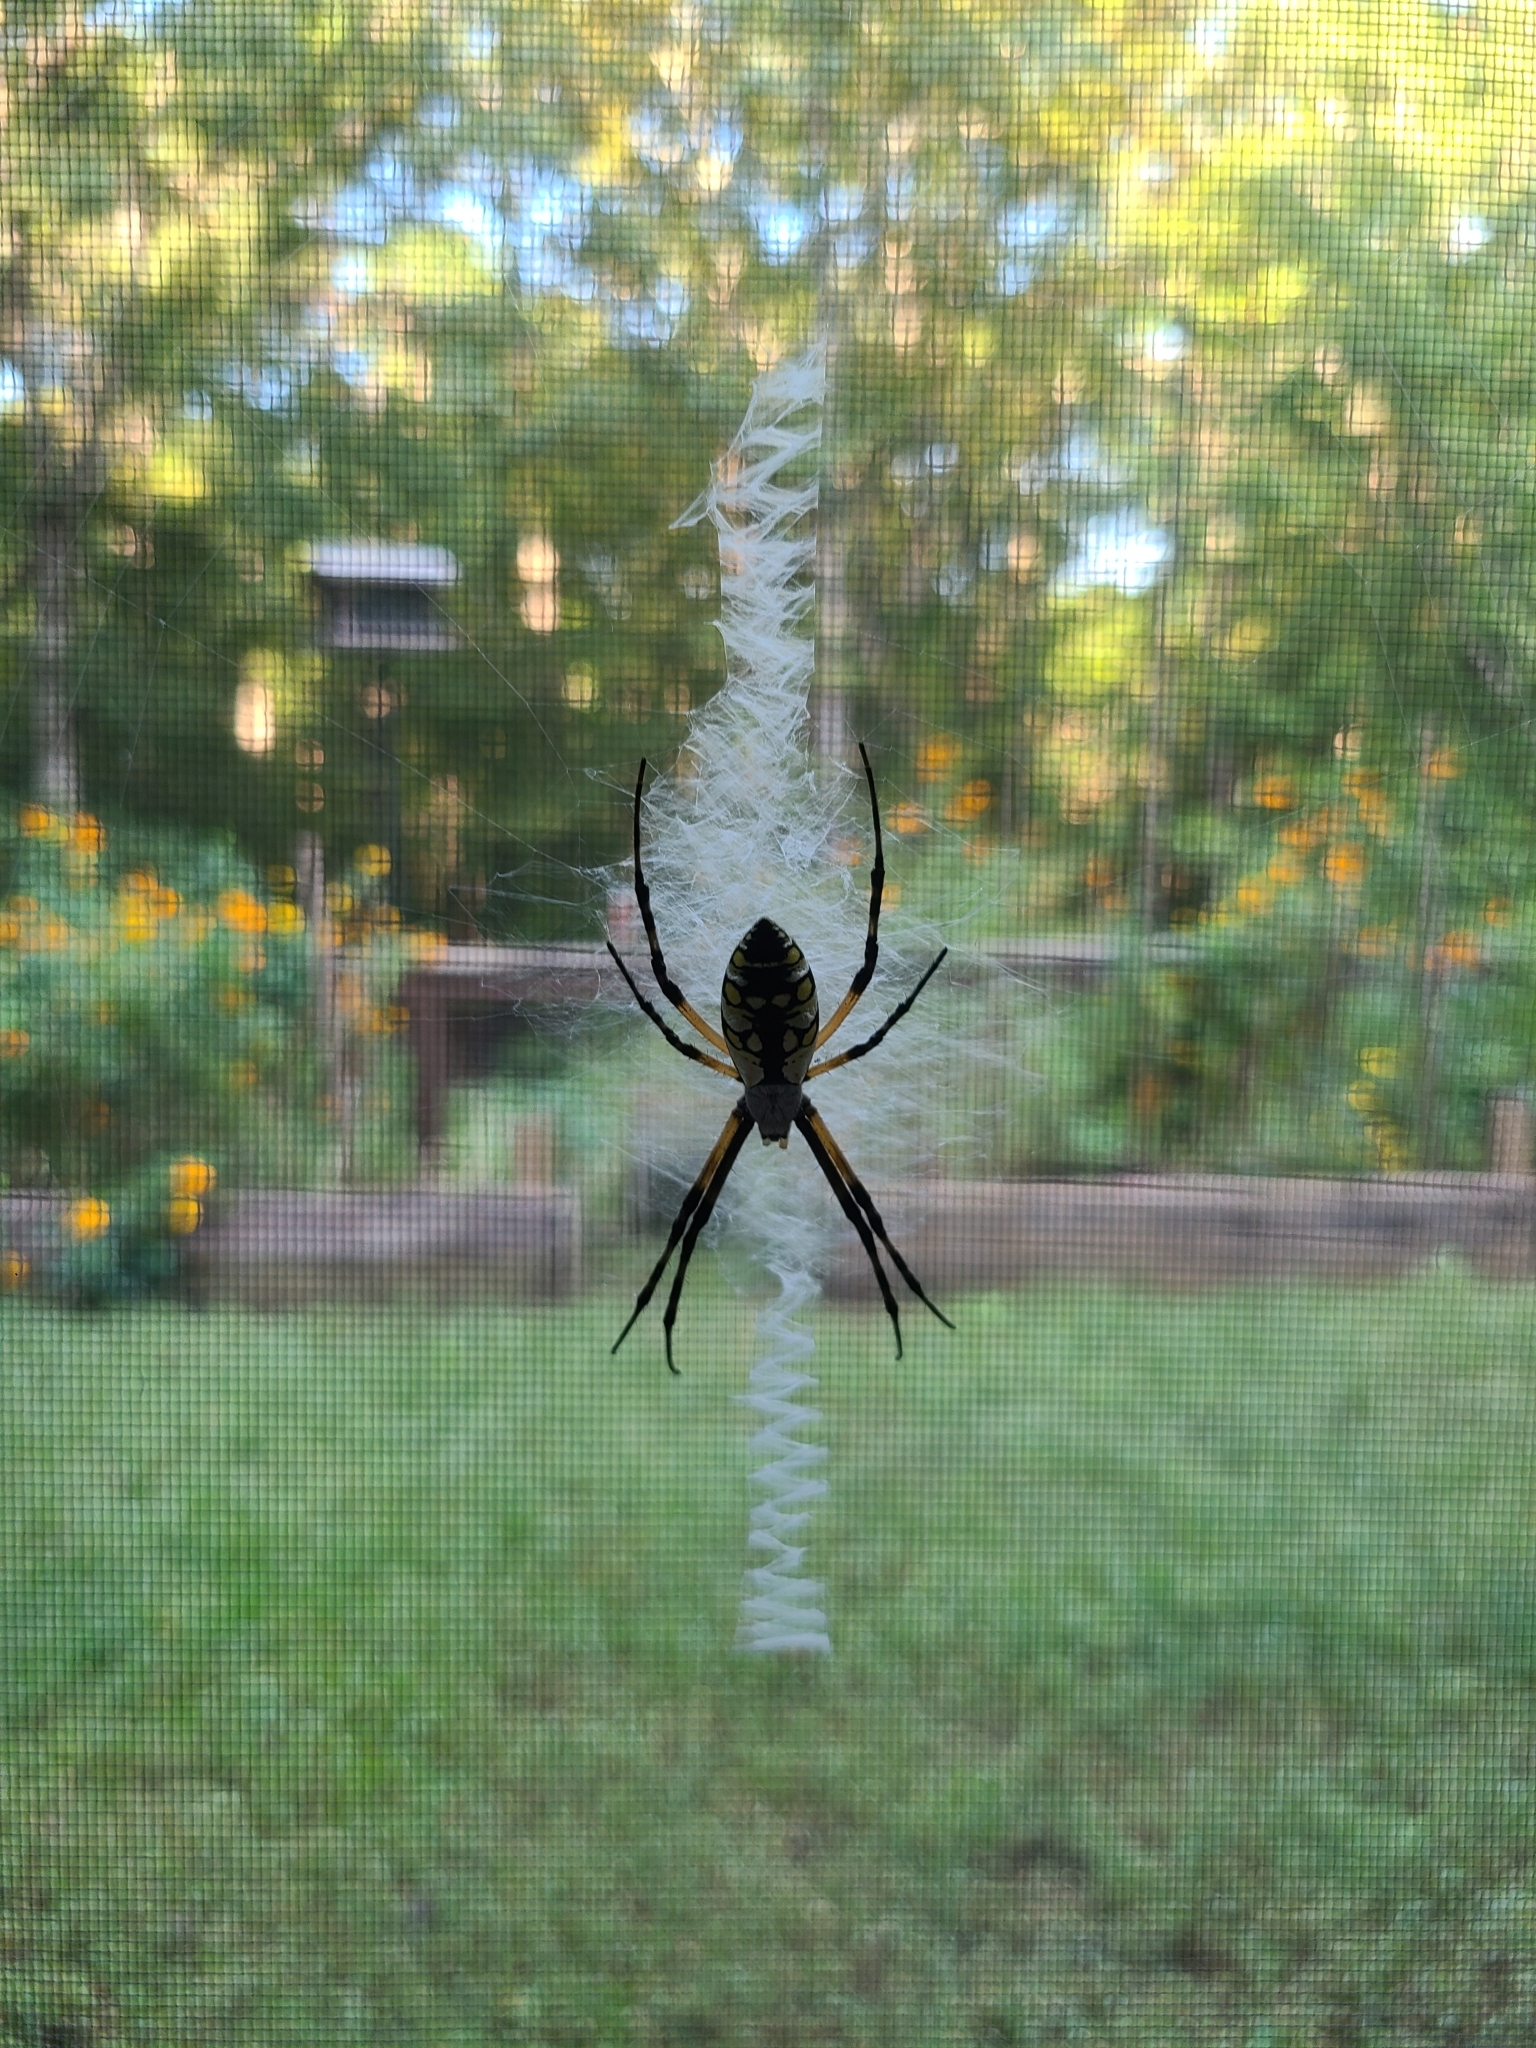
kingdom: Animalia
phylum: Arthropoda
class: Arachnida
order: Araneae
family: Araneidae
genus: Argiope
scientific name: Argiope aurantia
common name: Orb weavers
